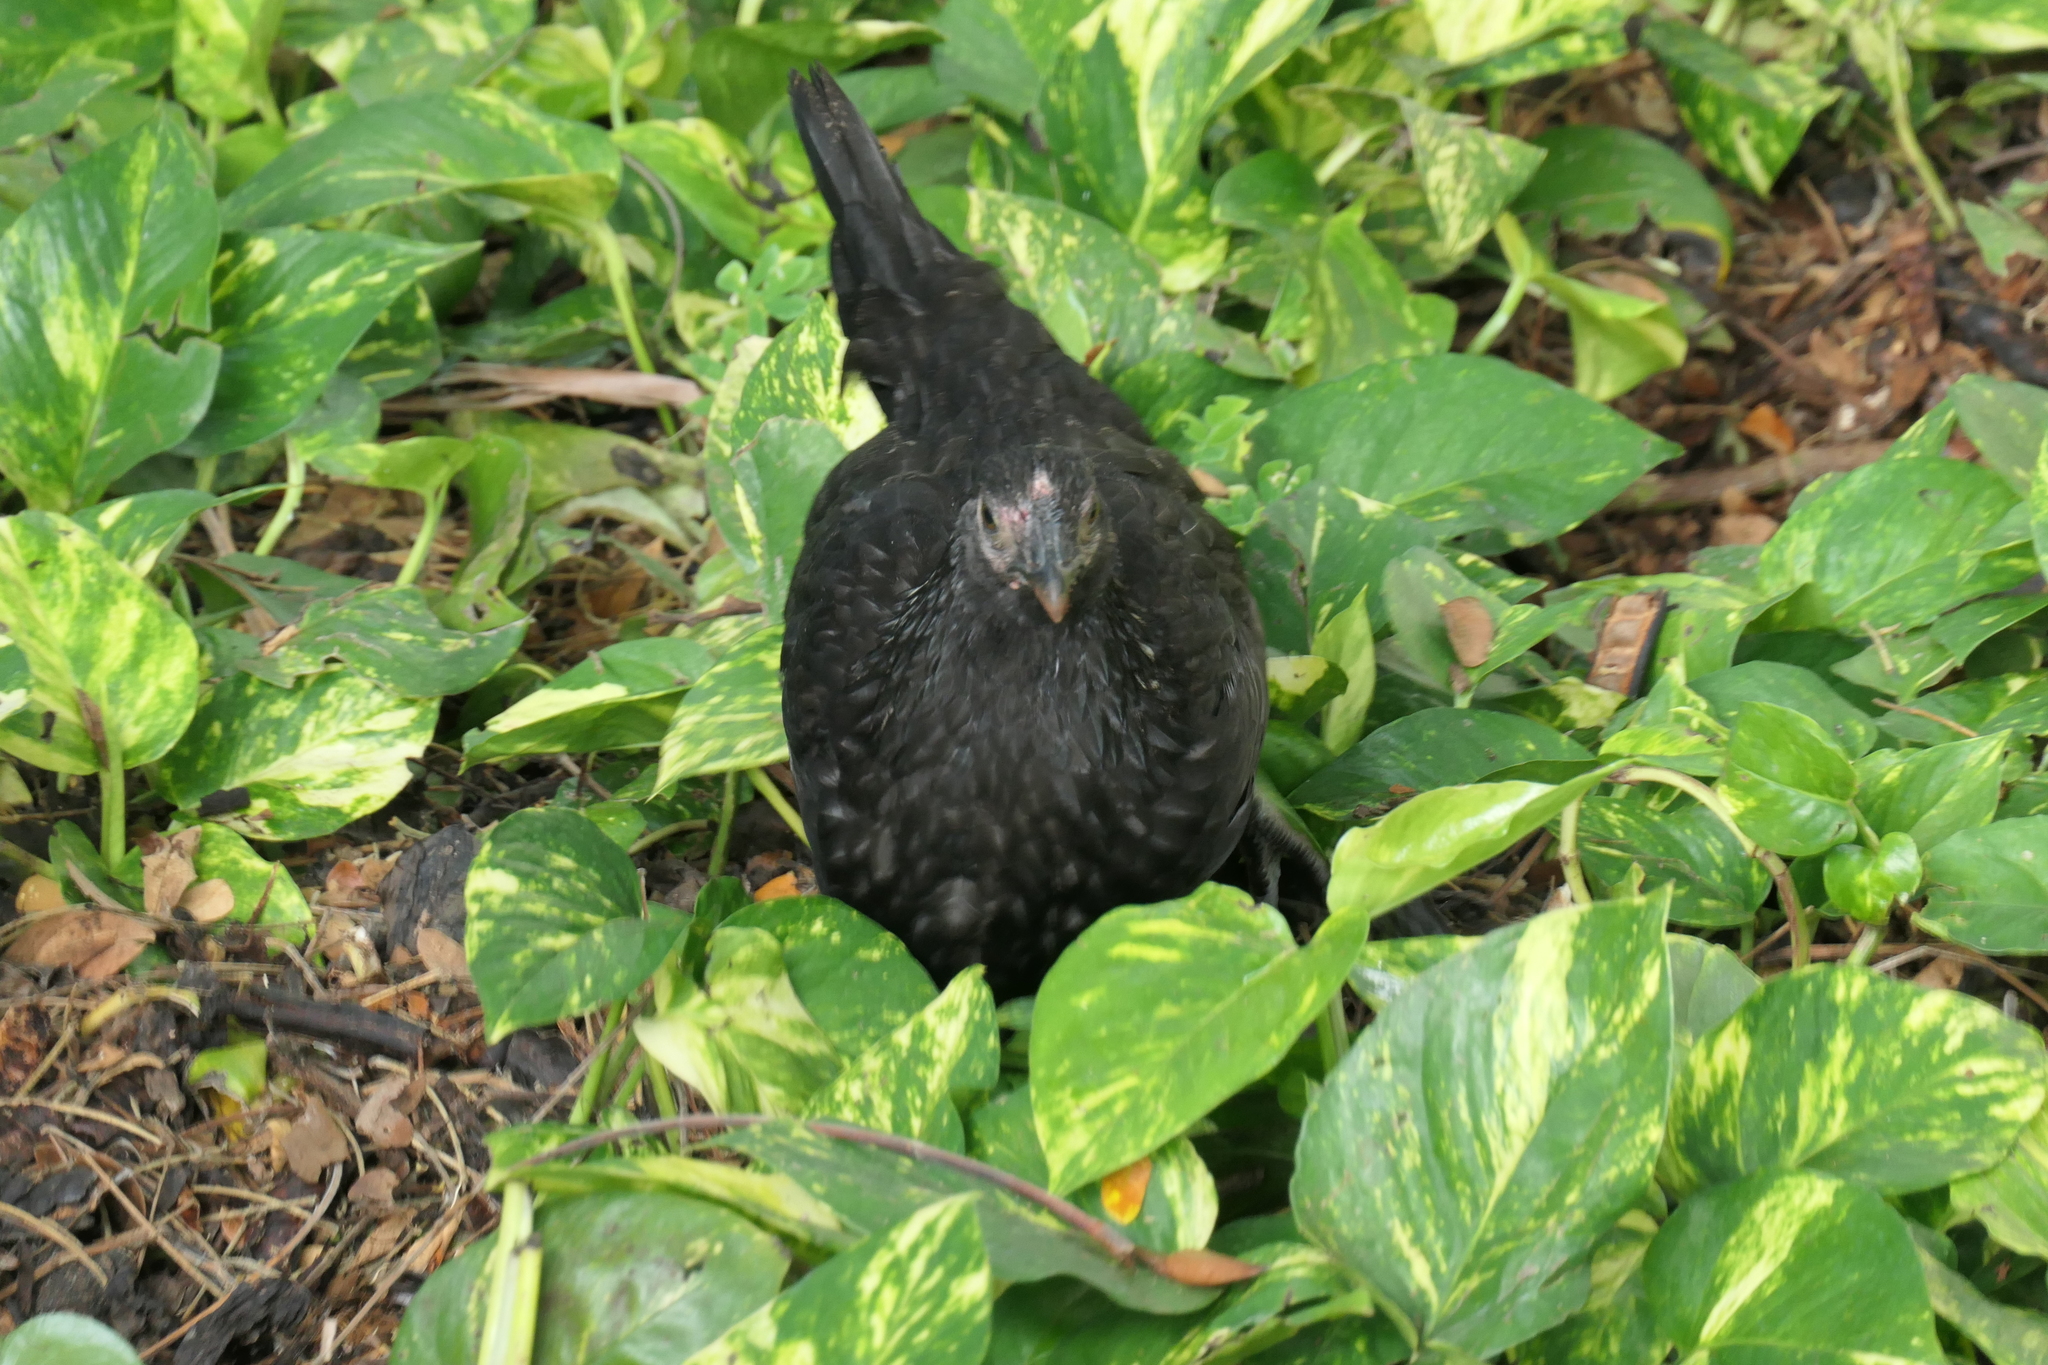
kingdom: Animalia
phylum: Chordata
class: Aves
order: Galliformes
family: Phasianidae
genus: Gallus
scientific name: Gallus gallus
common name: Red junglefowl
